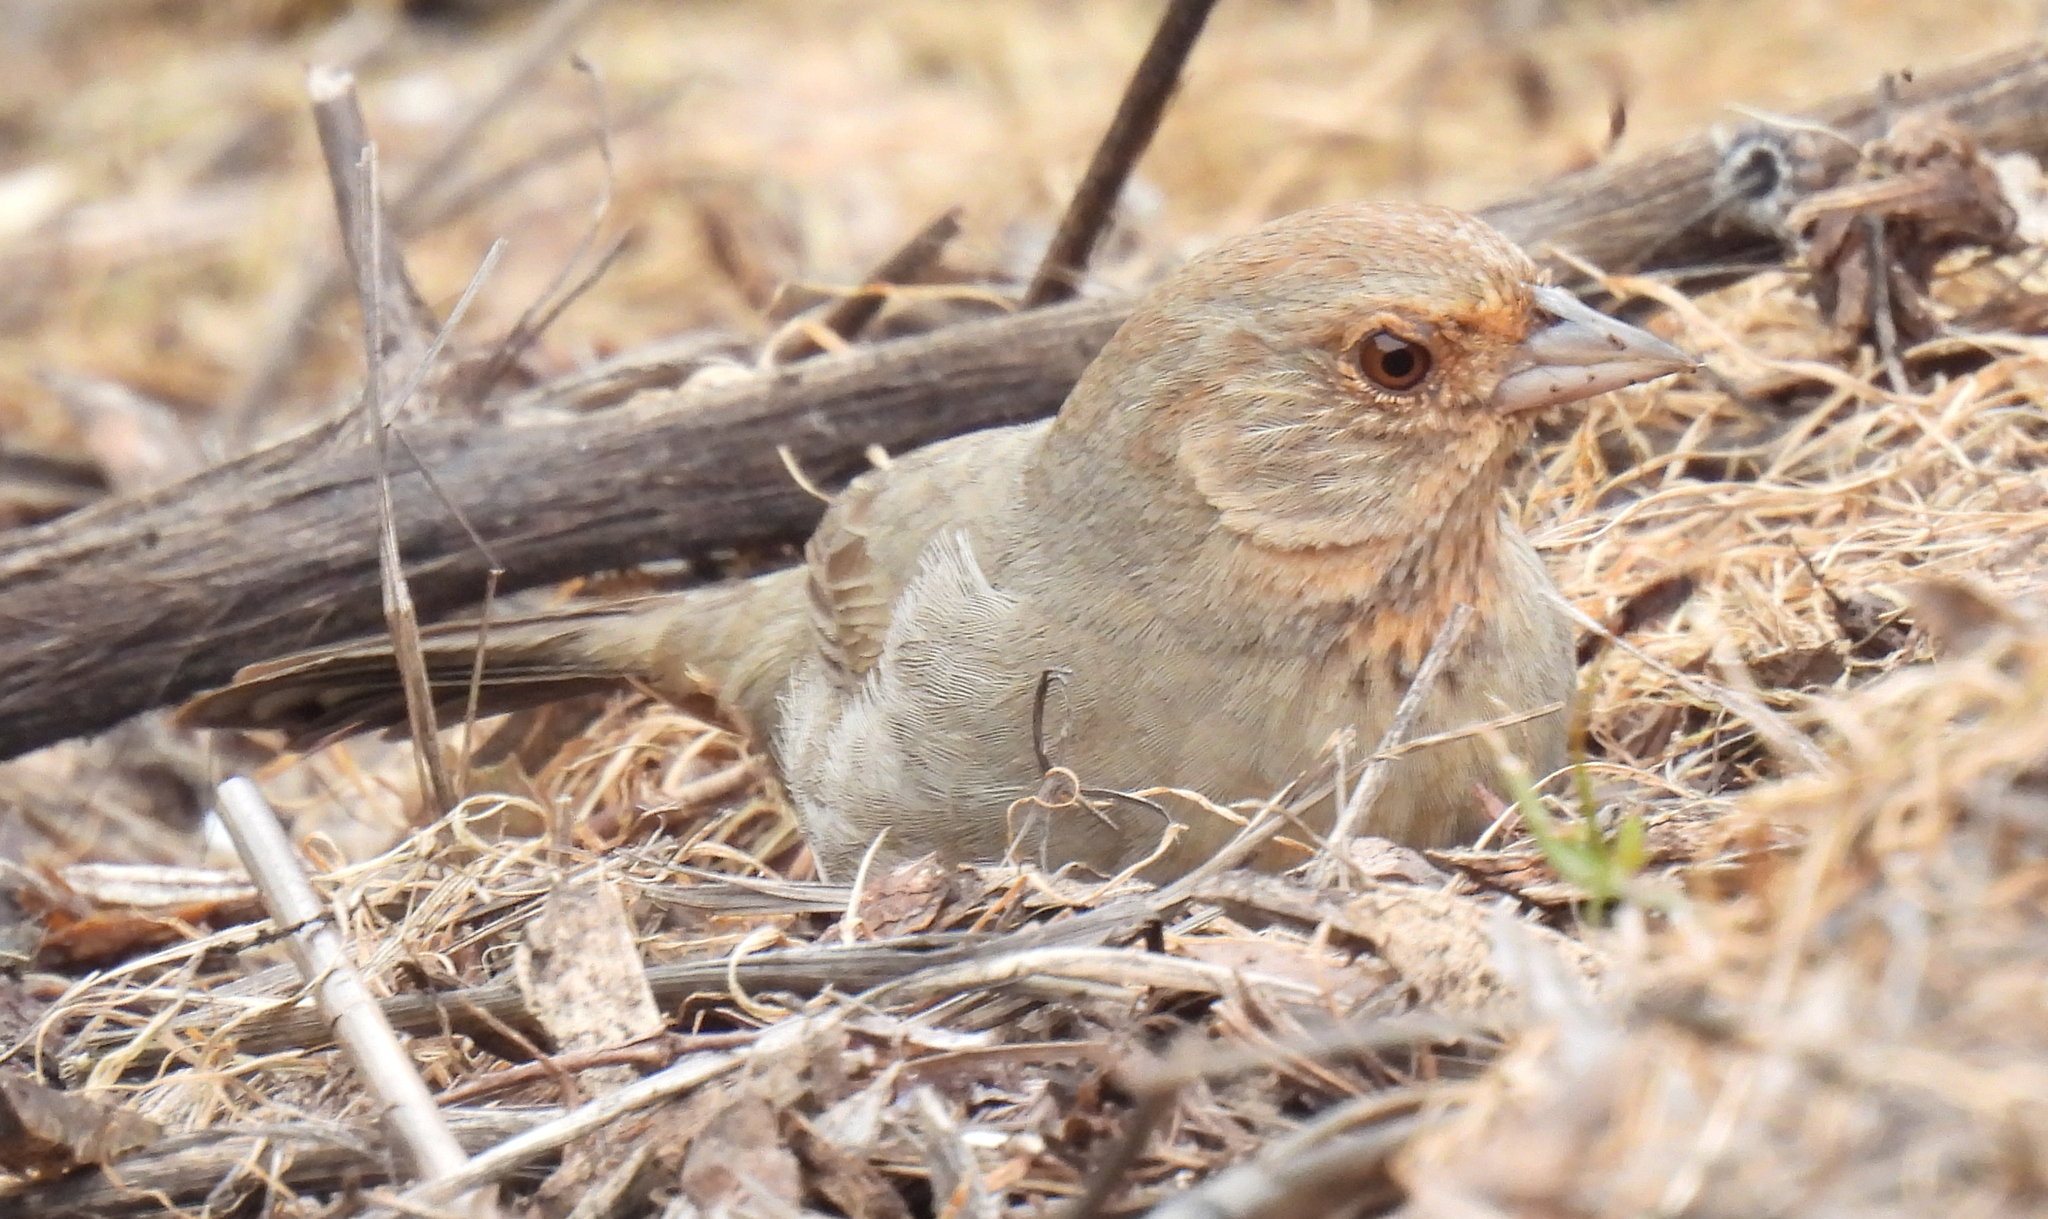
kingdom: Animalia
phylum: Chordata
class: Aves
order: Passeriformes
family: Passerellidae
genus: Melozone
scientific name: Melozone crissalis
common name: California towhee
